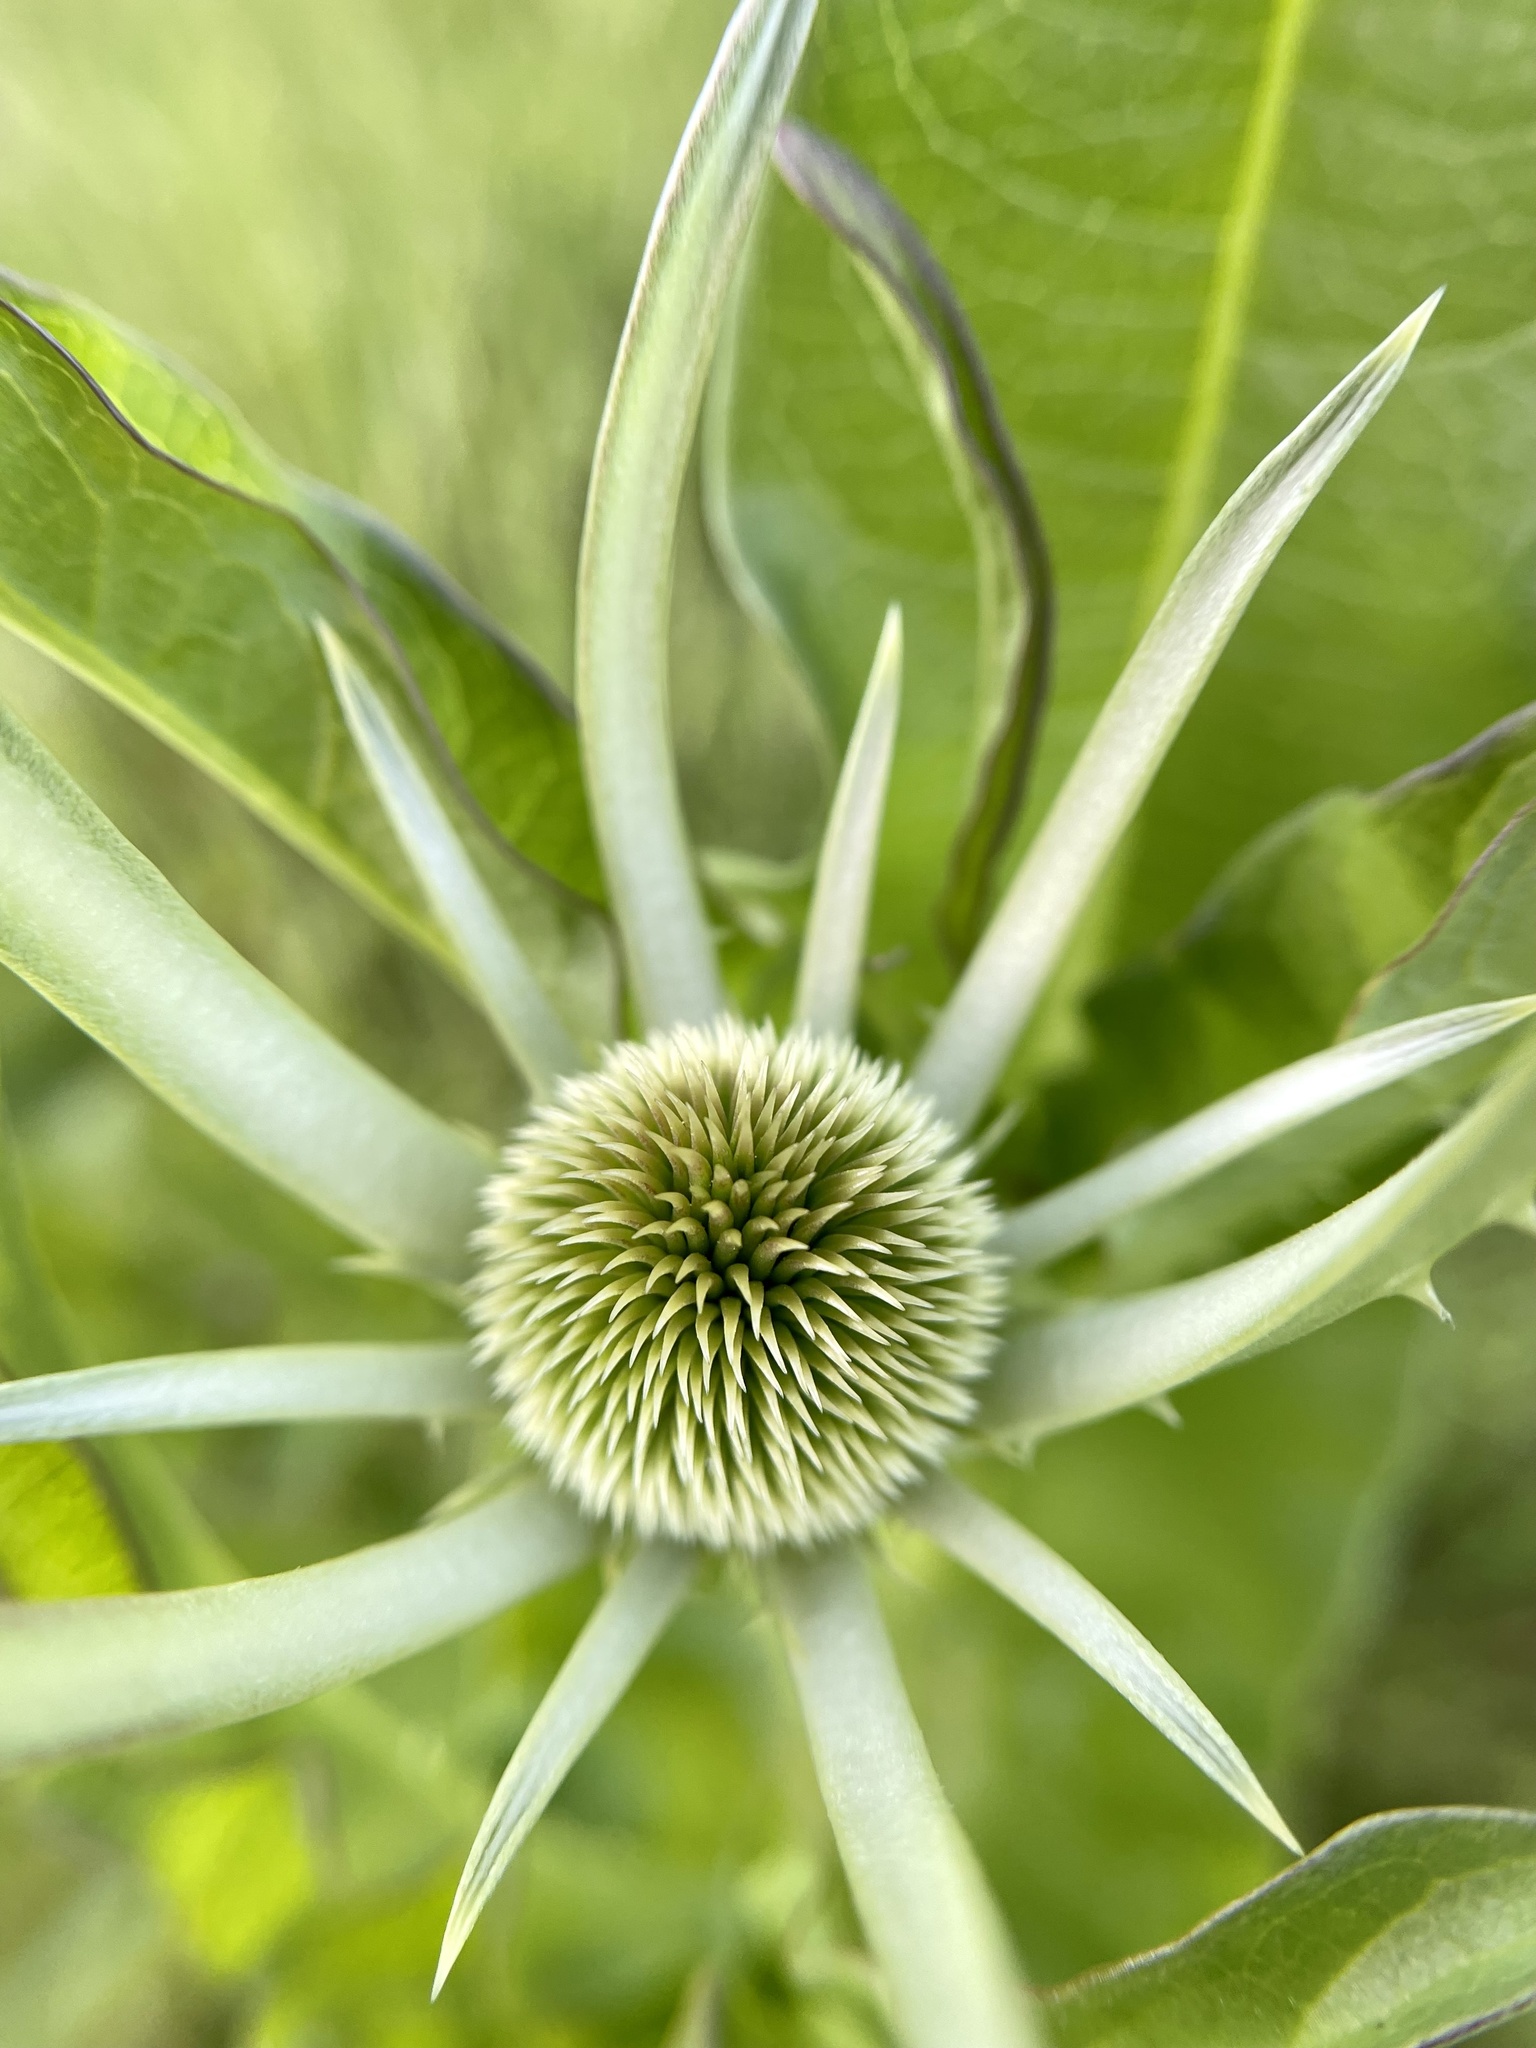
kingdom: Plantae
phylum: Tracheophyta
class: Magnoliopsida
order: Dipsacales
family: Caprifoliaceae
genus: Dipsacus
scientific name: Dipsacus sativus
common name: Fuller's teasel
